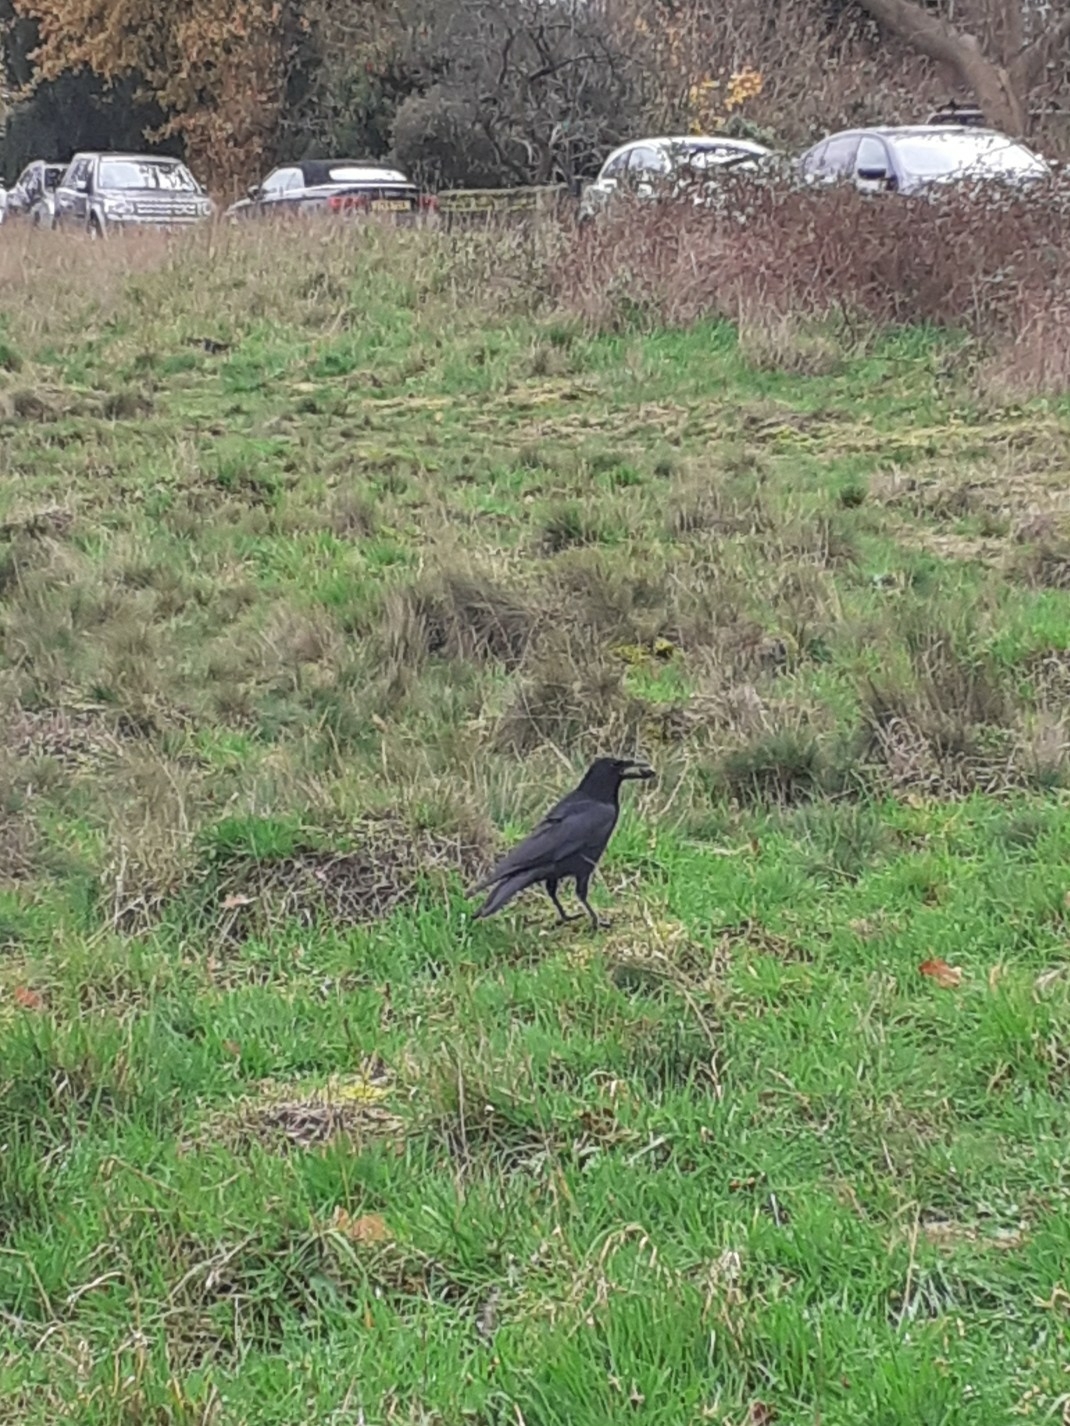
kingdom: Animalia
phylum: Chordata
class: Aves
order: Passeriformes
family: Corvidae
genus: Corvus
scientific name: Corvus corone
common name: Carrion crow
